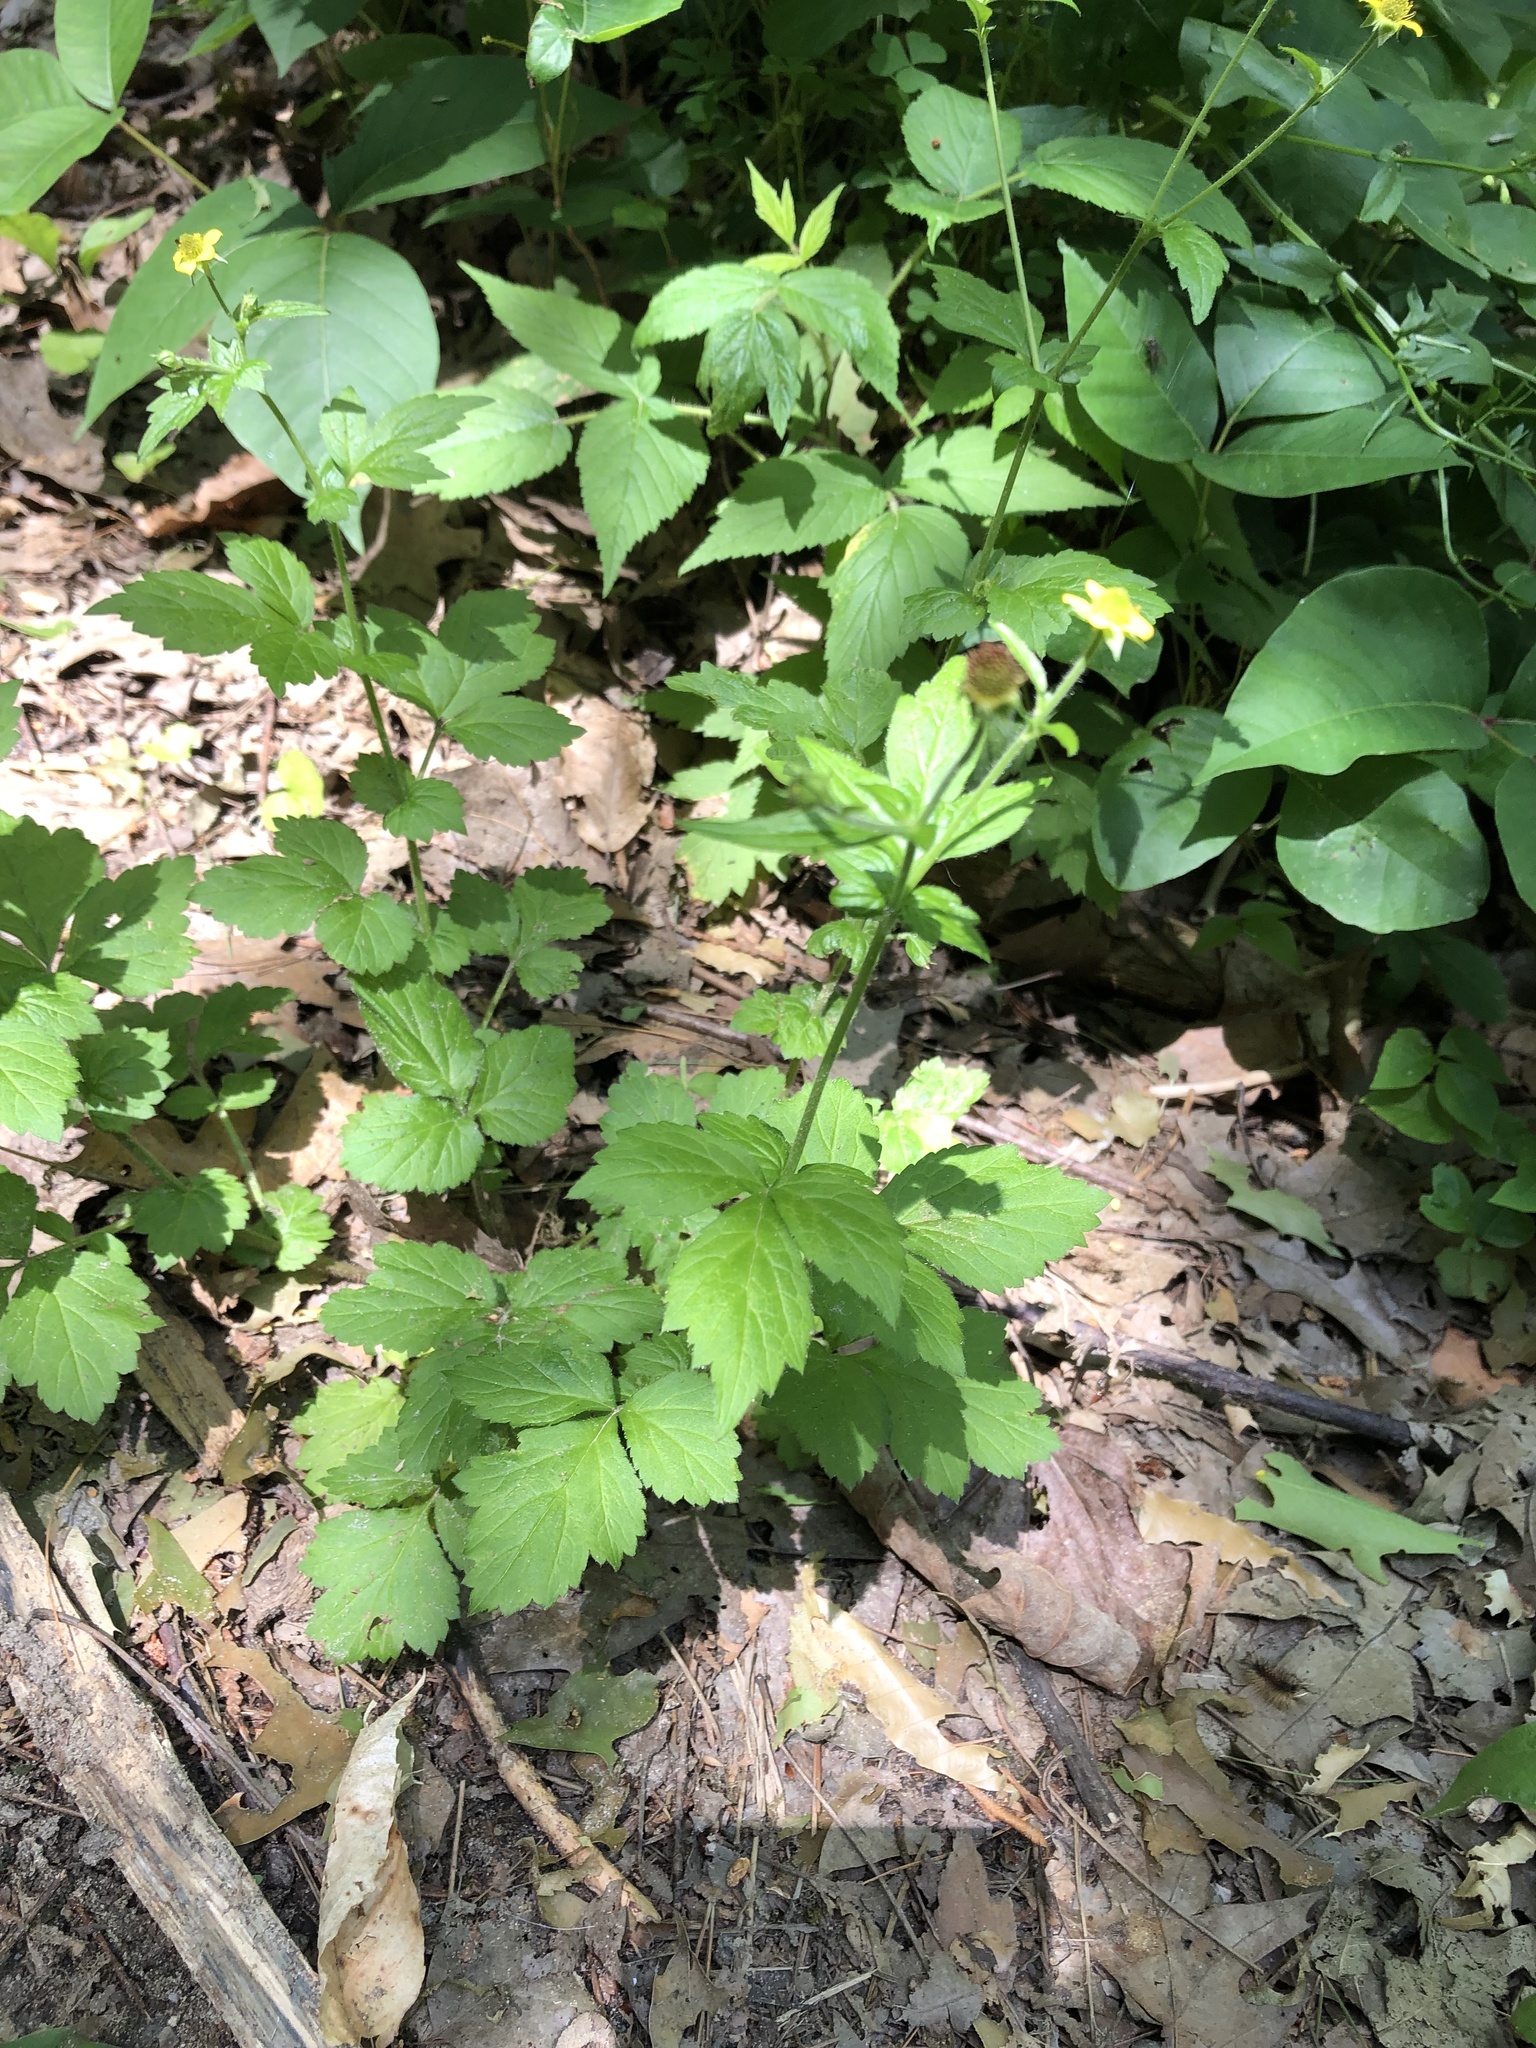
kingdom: Plantae
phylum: Tracheophyta
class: Magnoliopsida
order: Rosales
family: Rosaceae
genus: Geum
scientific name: Geum urbanum
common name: Wood avens
